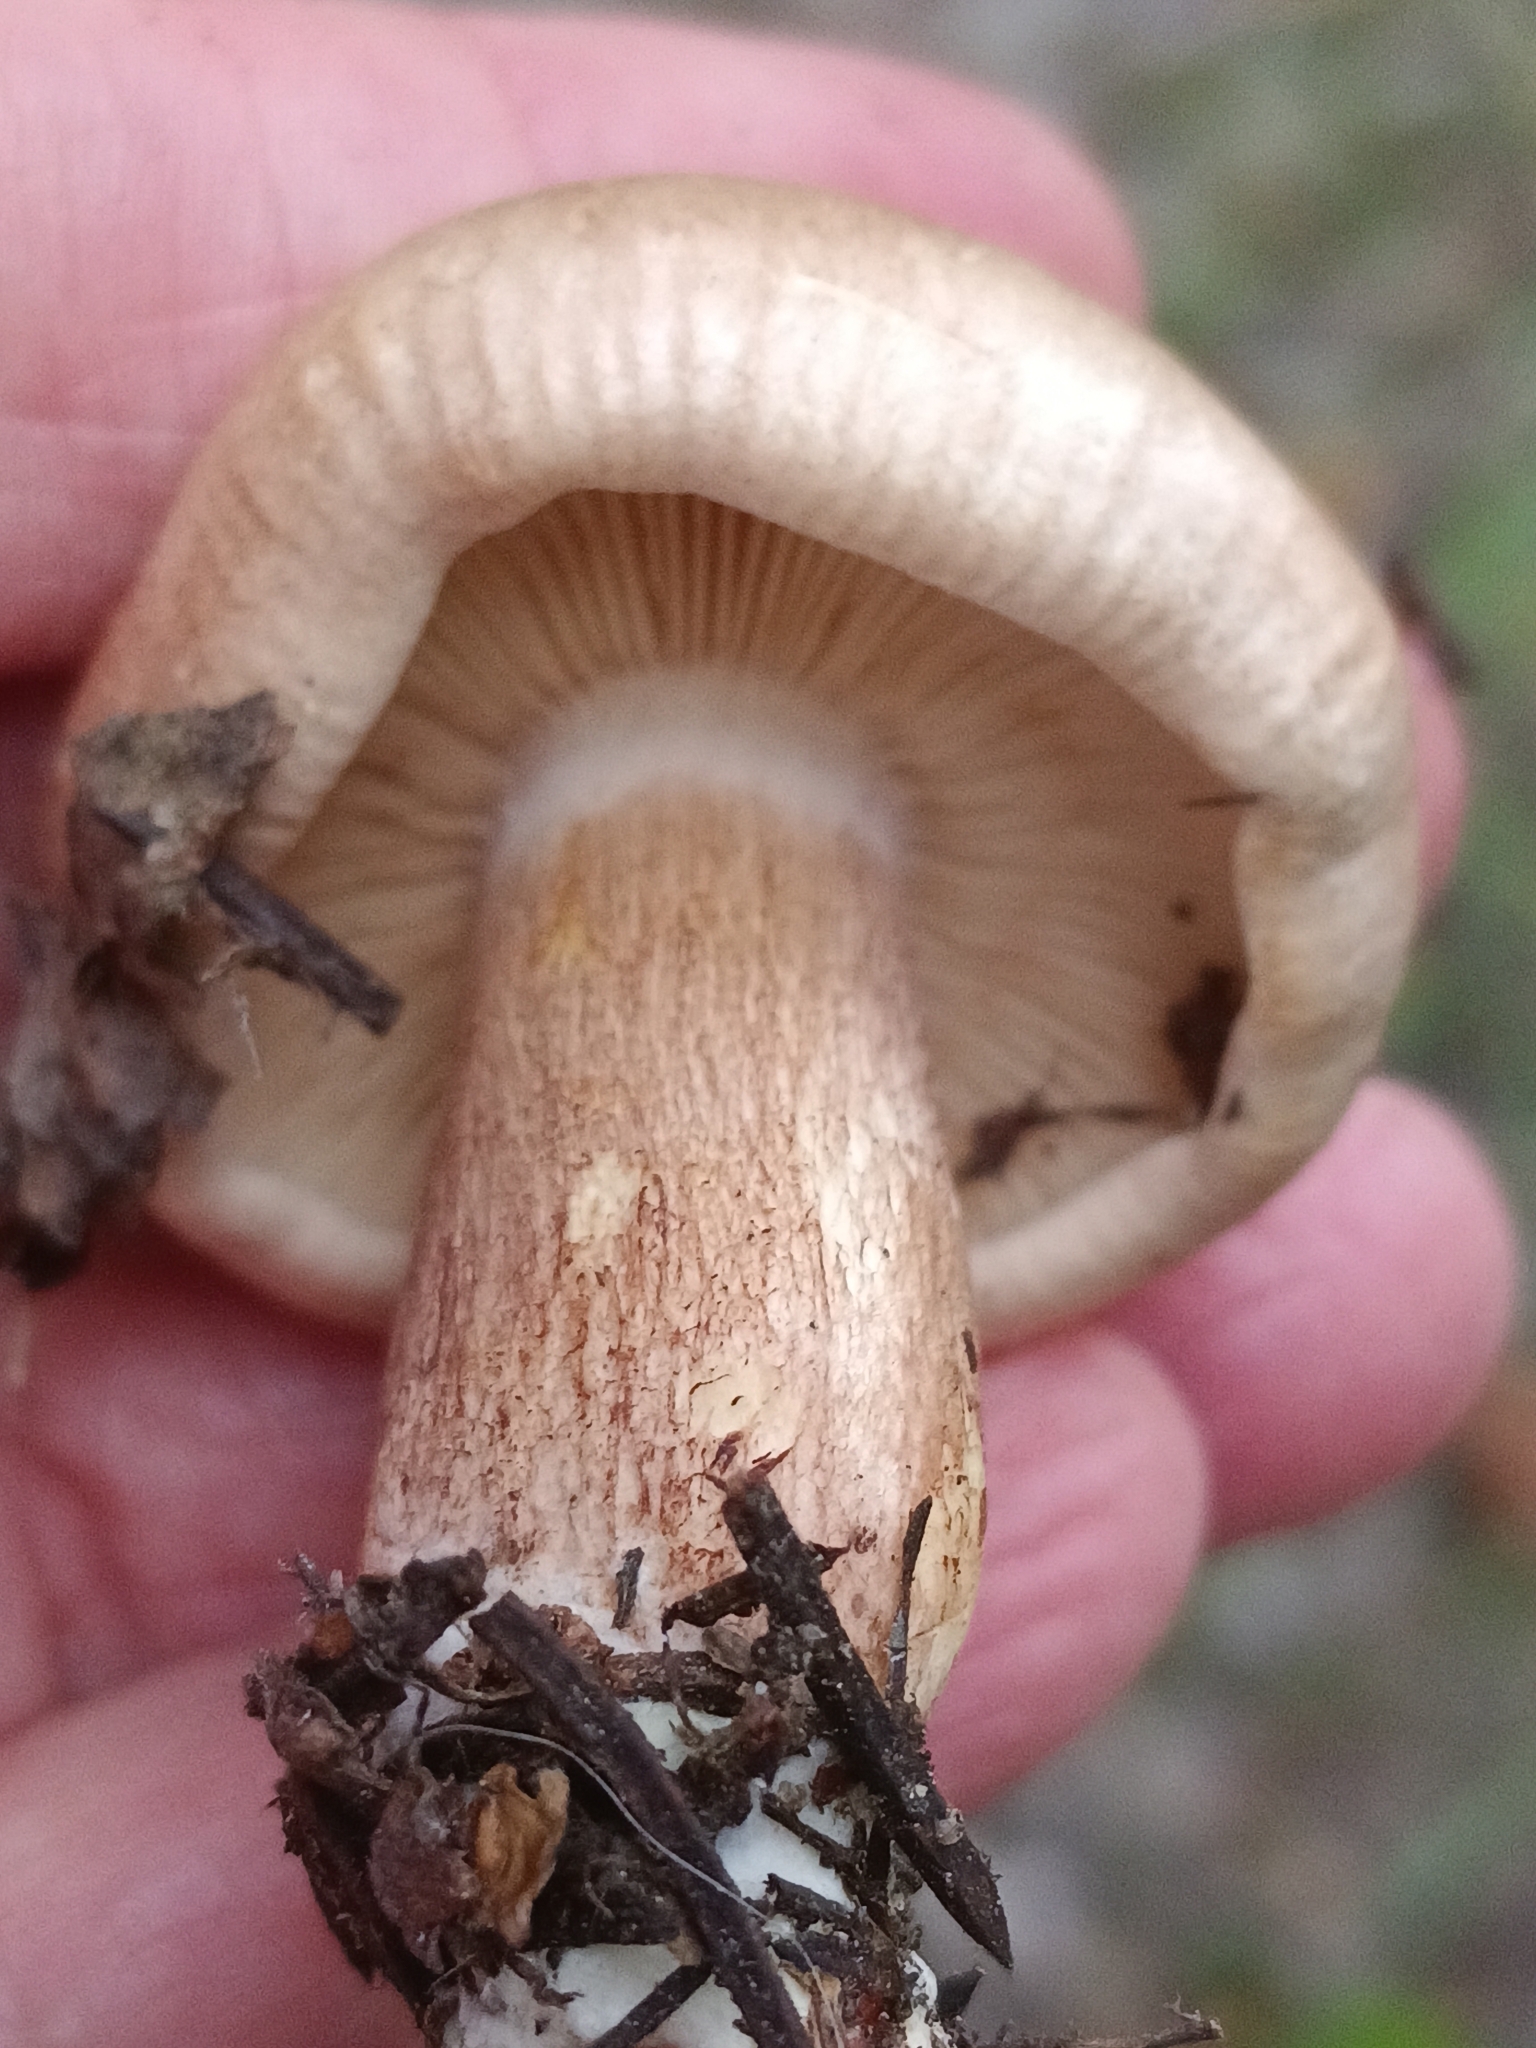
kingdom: Fungi
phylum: Basidiomycota
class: Agaricomycetes
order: Agaricales
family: Tricholomataceae
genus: Tricholoma
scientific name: Tricholoma fulvum
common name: Birch knight
